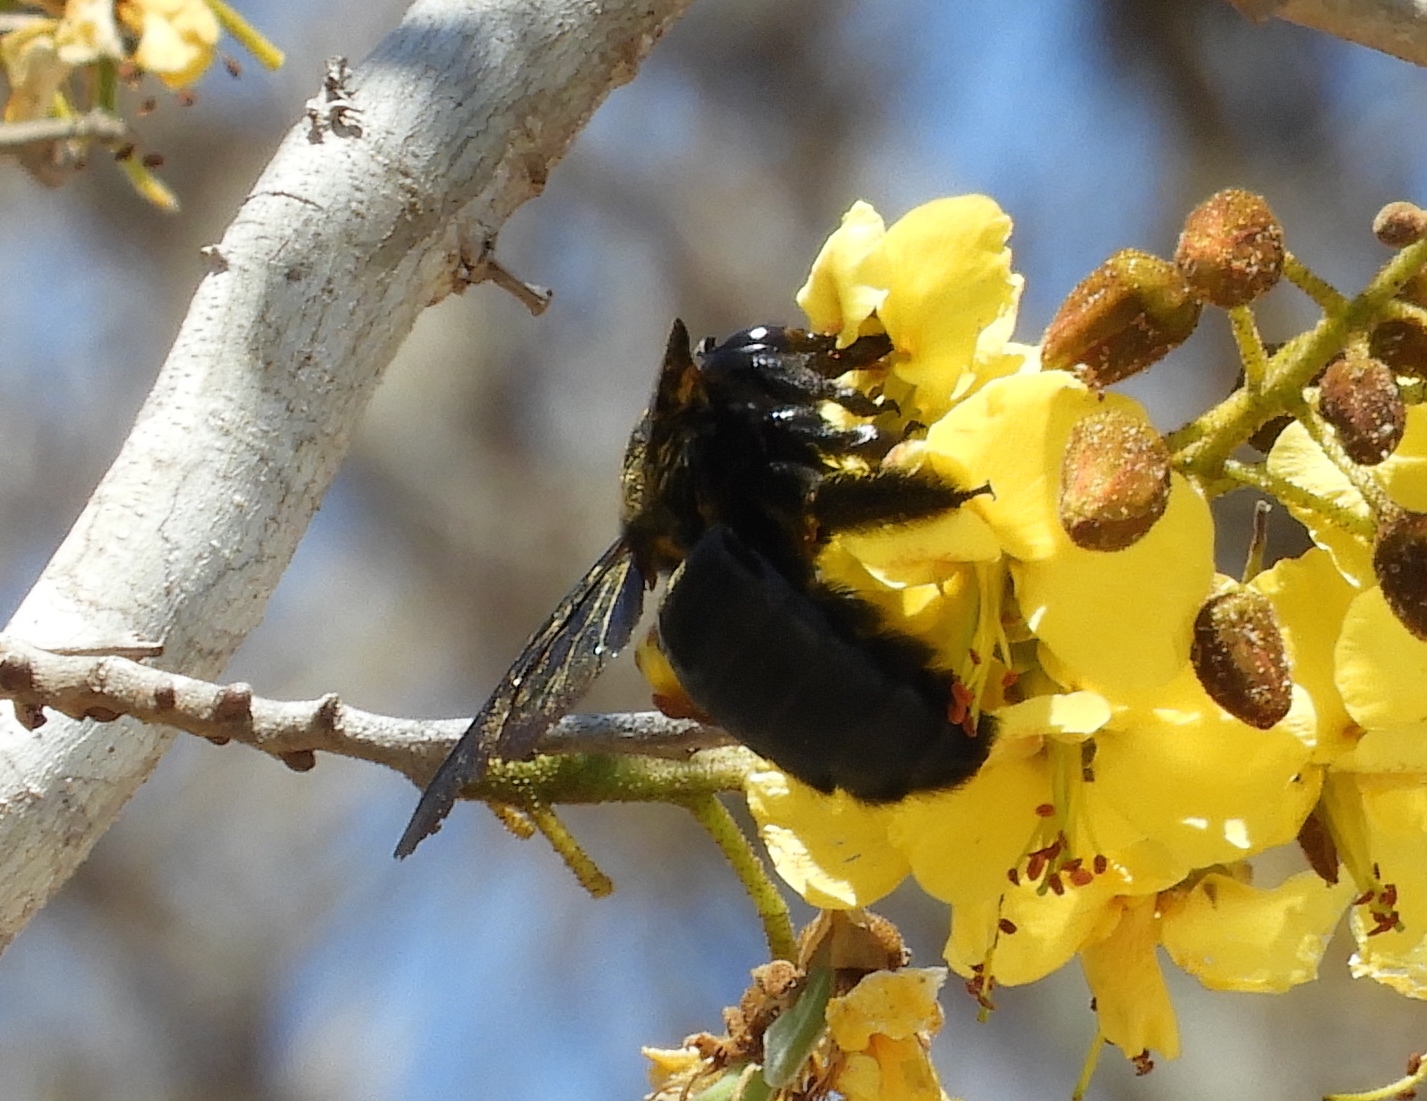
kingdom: Animalia
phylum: Arthropoda
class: Insecta
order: Hymenoptera
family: Apidae
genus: Xylocopa
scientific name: Xylocopa fimbriata
